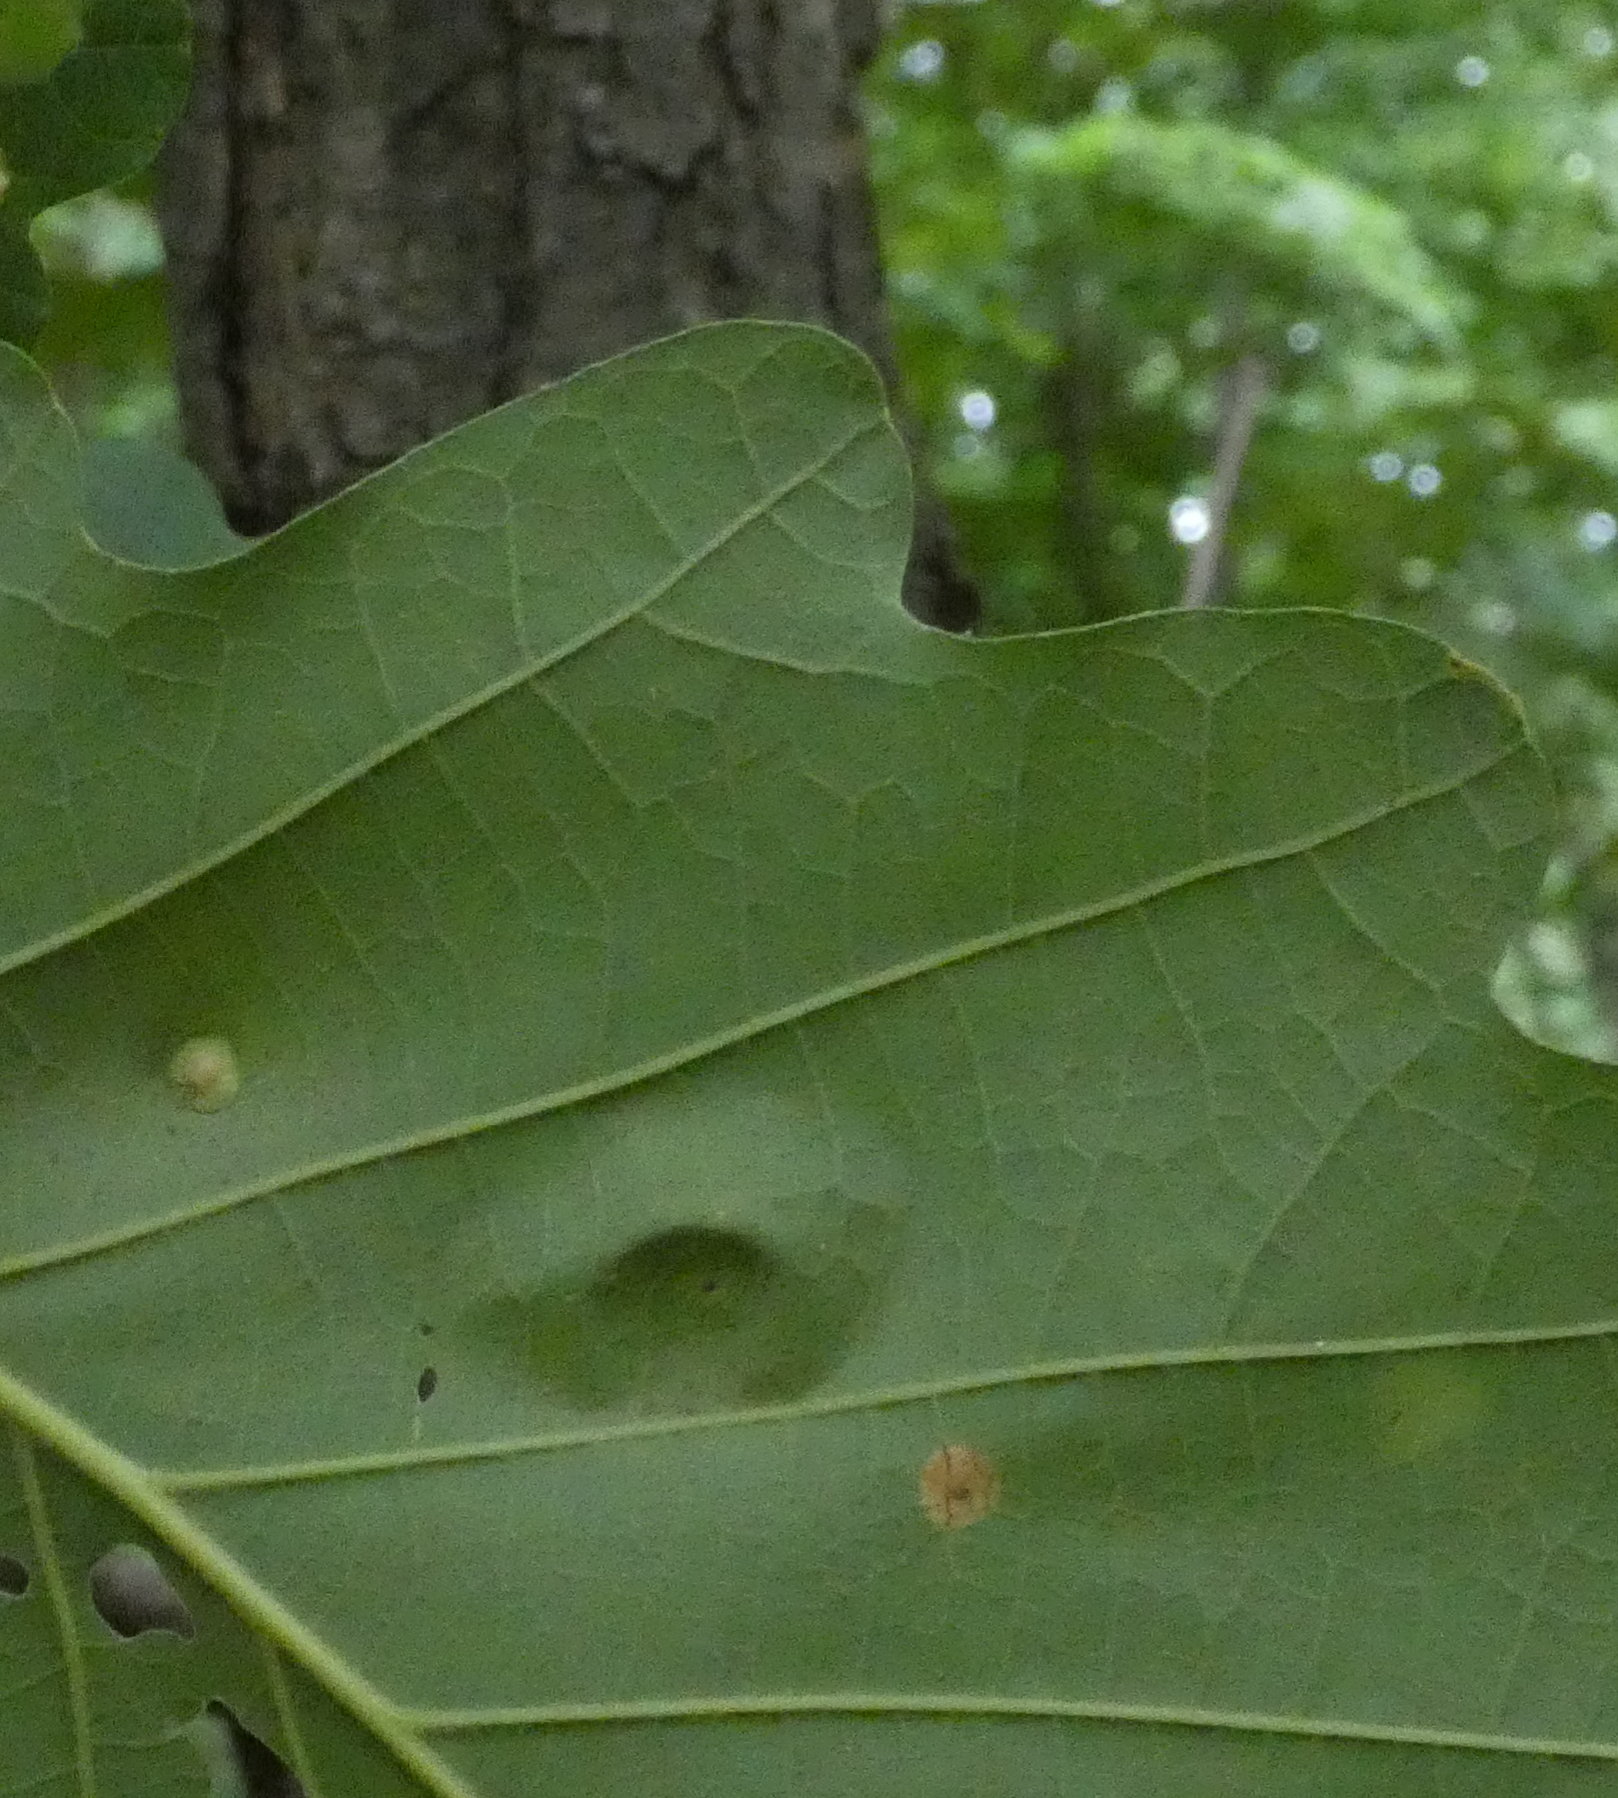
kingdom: Animalia
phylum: Arthropoda
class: Insecta
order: Hymenoptera
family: Cynipidae
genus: Callirhytis
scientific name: Callirhytis
